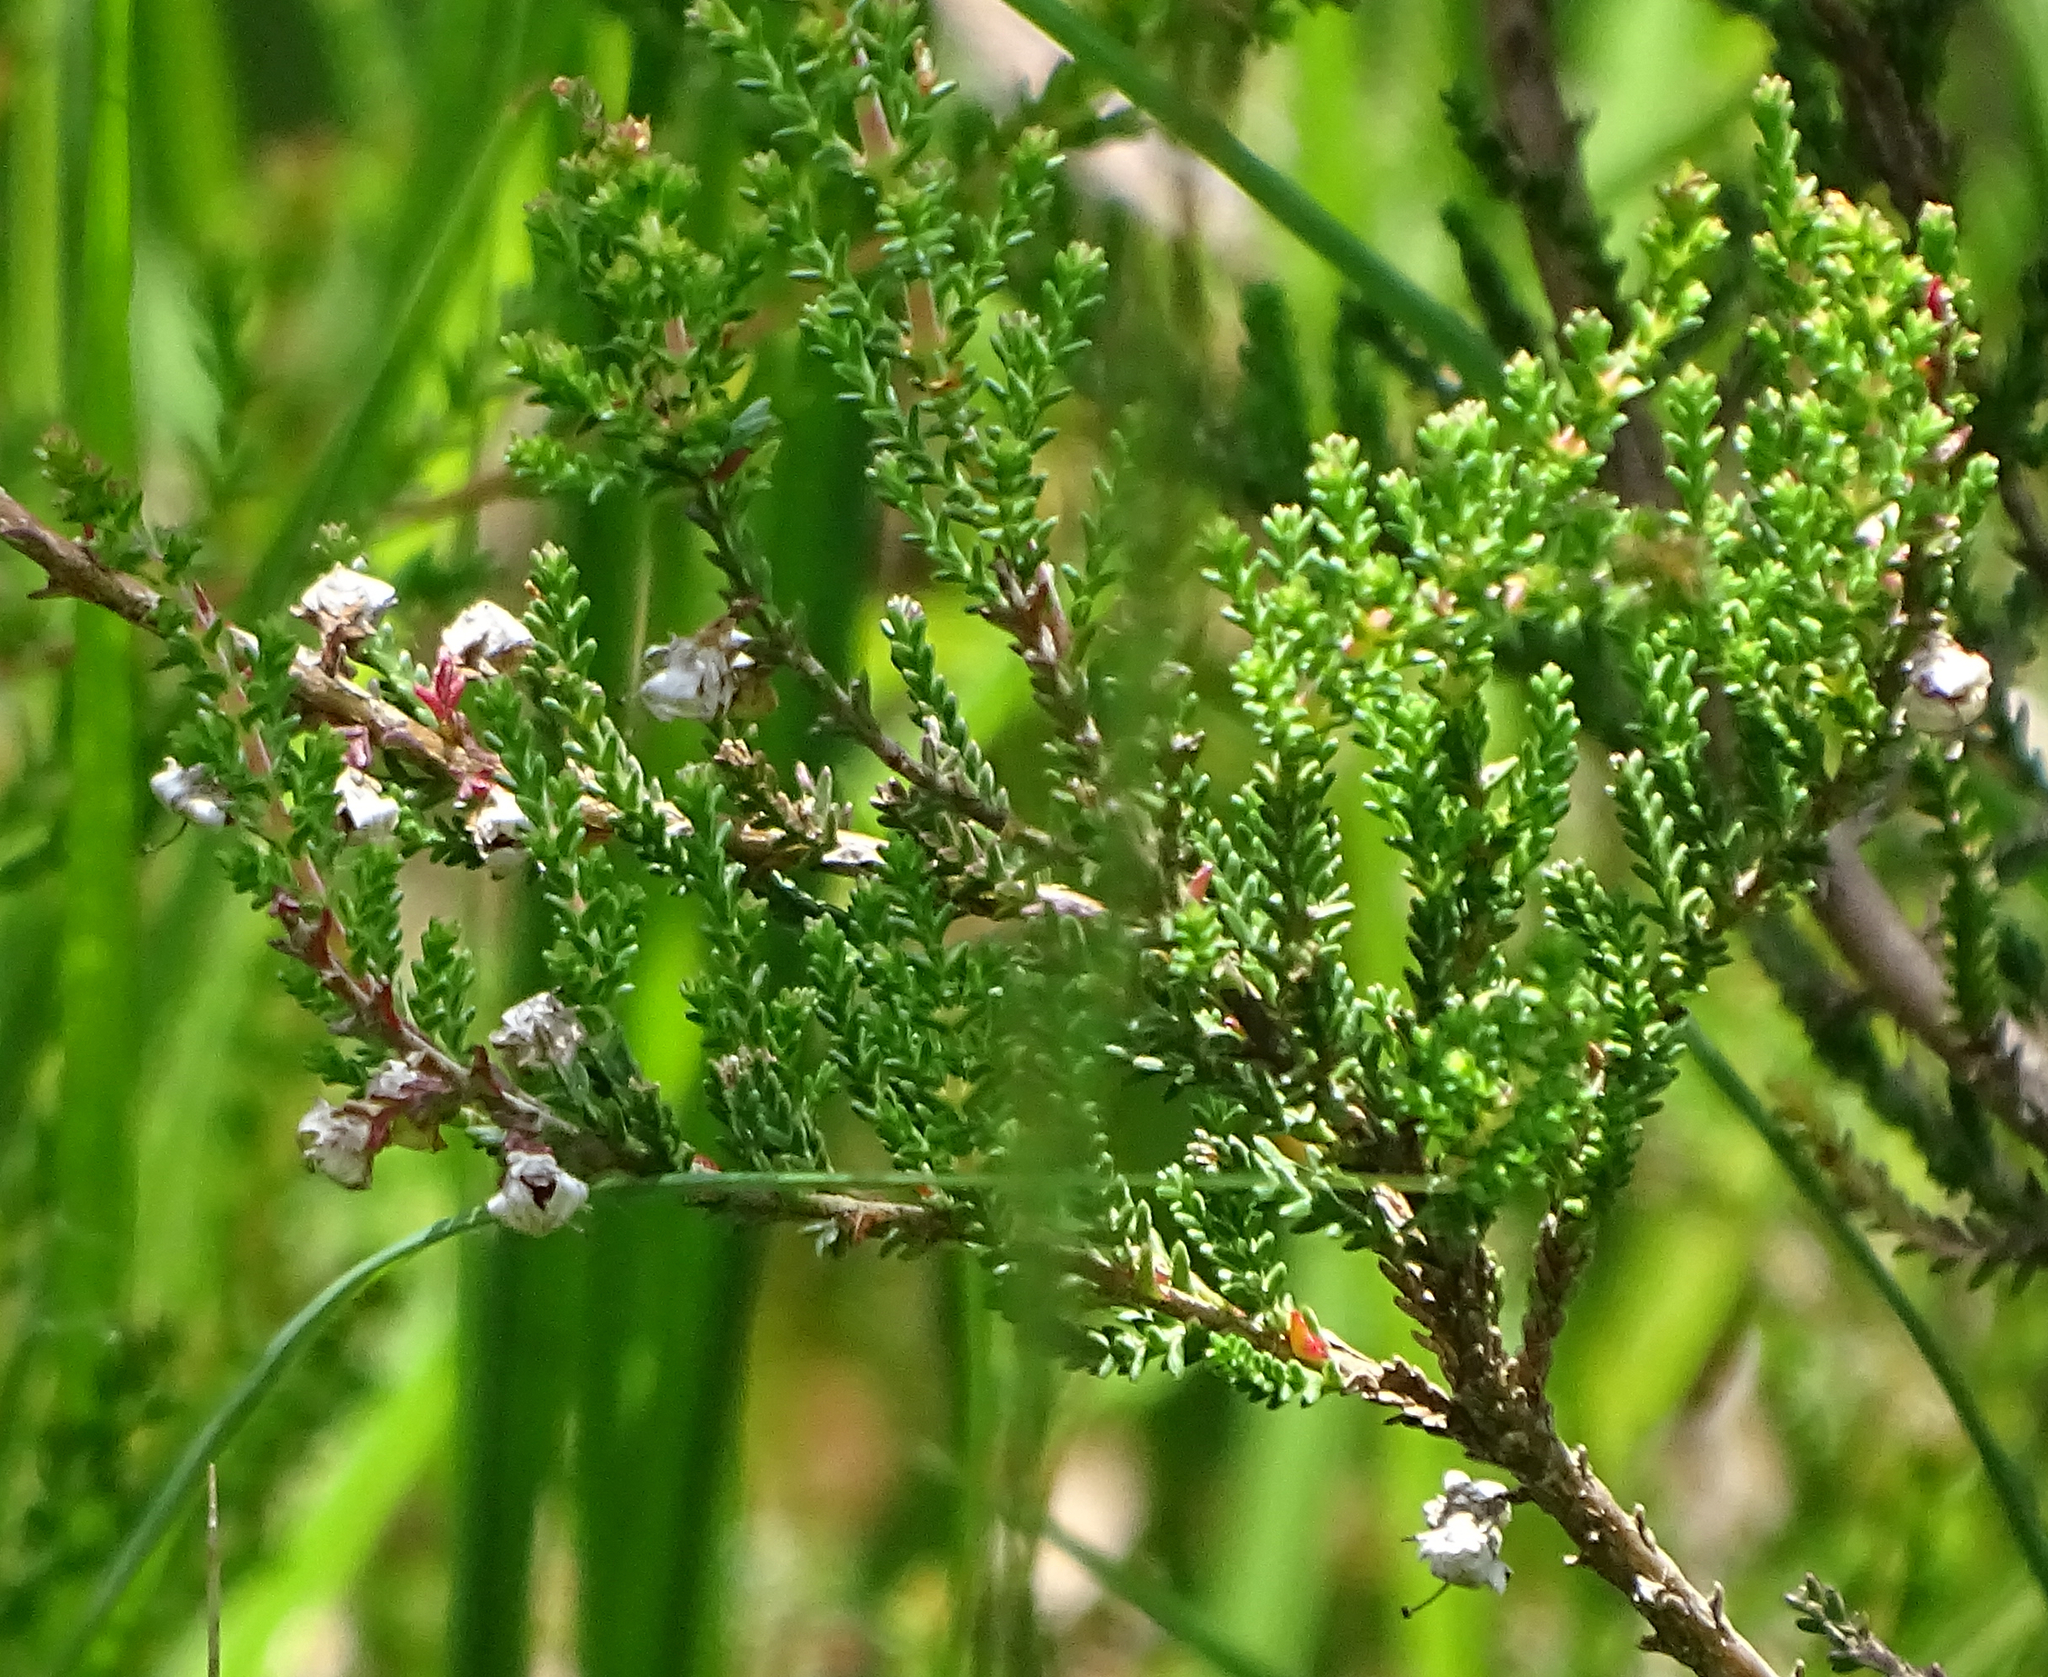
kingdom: Plantae
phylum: Tracheophyta
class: Magnoliopsida
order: Ericales
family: Ericaceae
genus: Calluna
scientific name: Calluna vulgaris
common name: Heather
